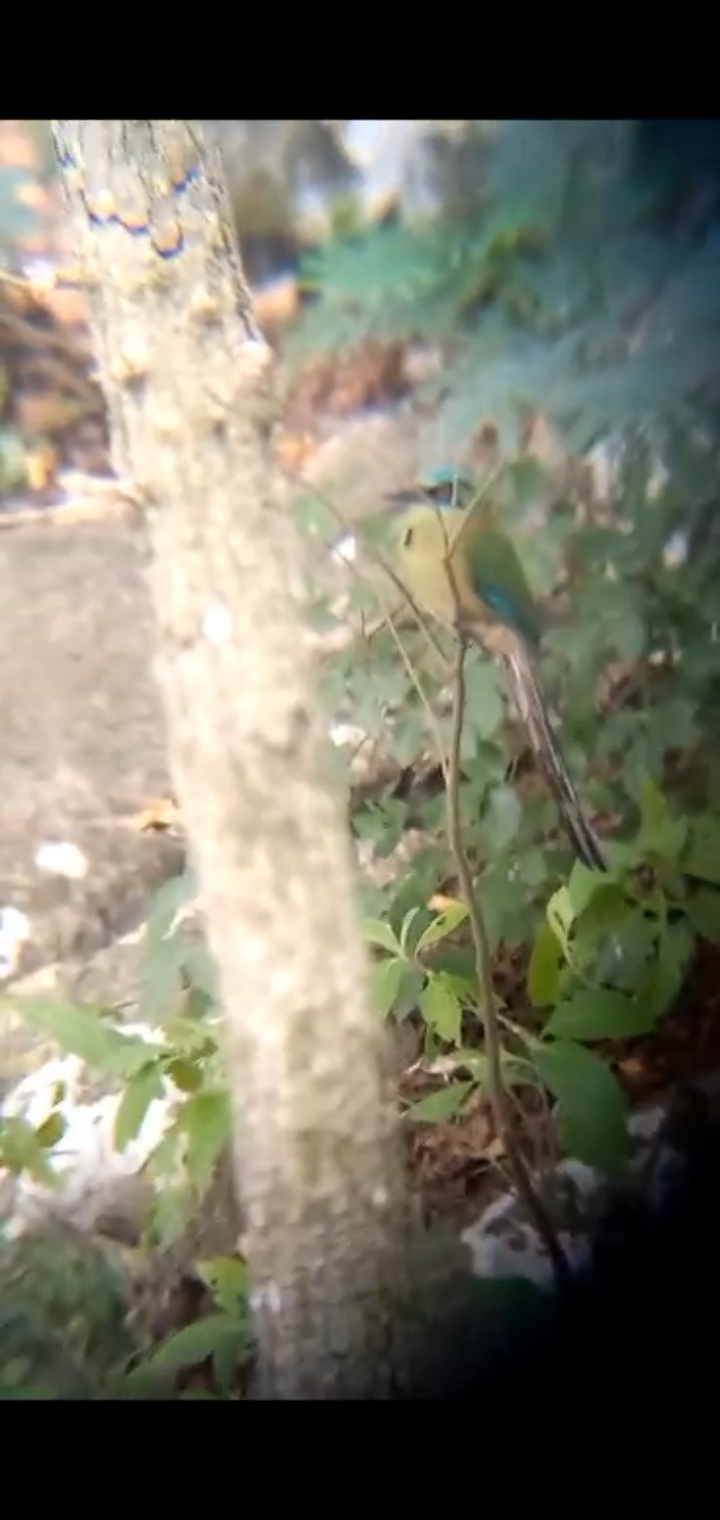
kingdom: Animalia
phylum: Chordata
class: Aves
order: Coraciiformes
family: Momotidae
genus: Momotus
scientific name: Momotus coeruliceps
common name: Blue-capped motmot
